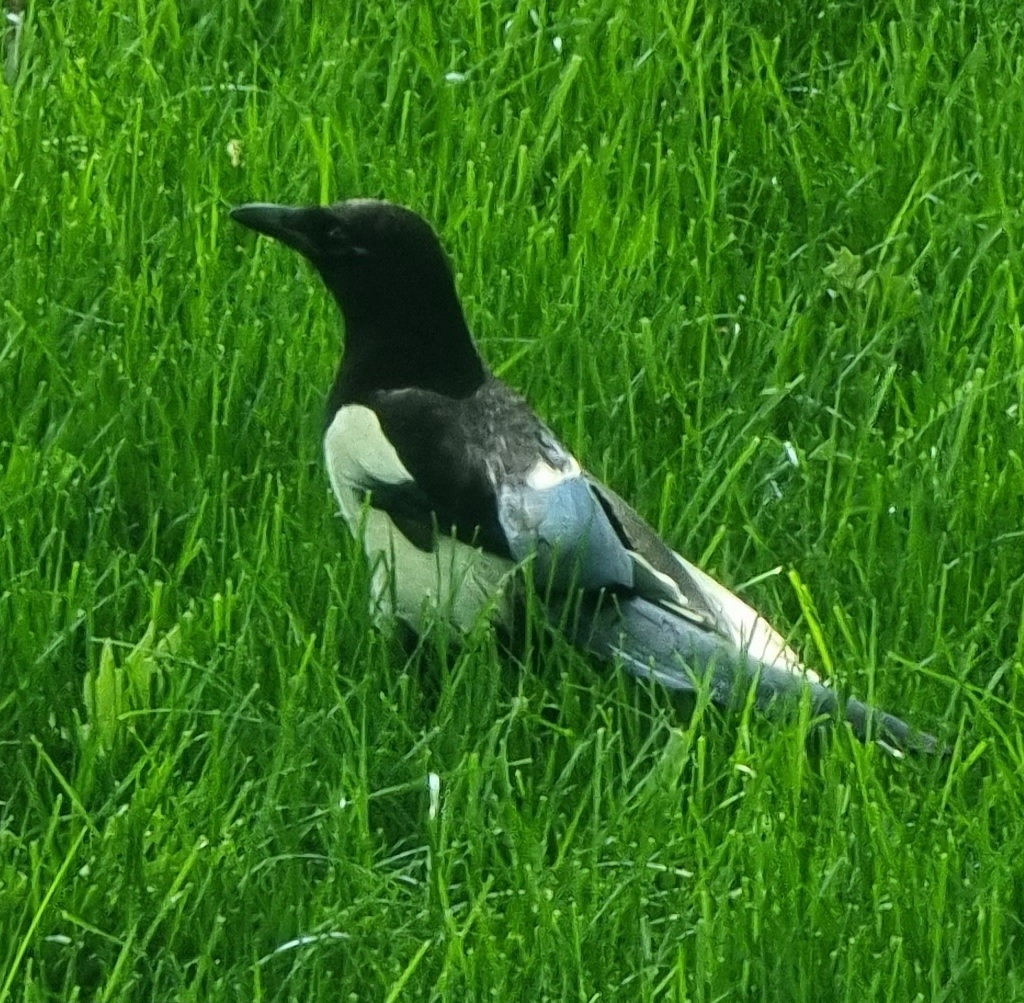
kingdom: Animalia
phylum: Chordata
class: Aves
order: Passeriformes
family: Corvidae
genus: Pica
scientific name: Pica pica
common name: Eurasian magpie
